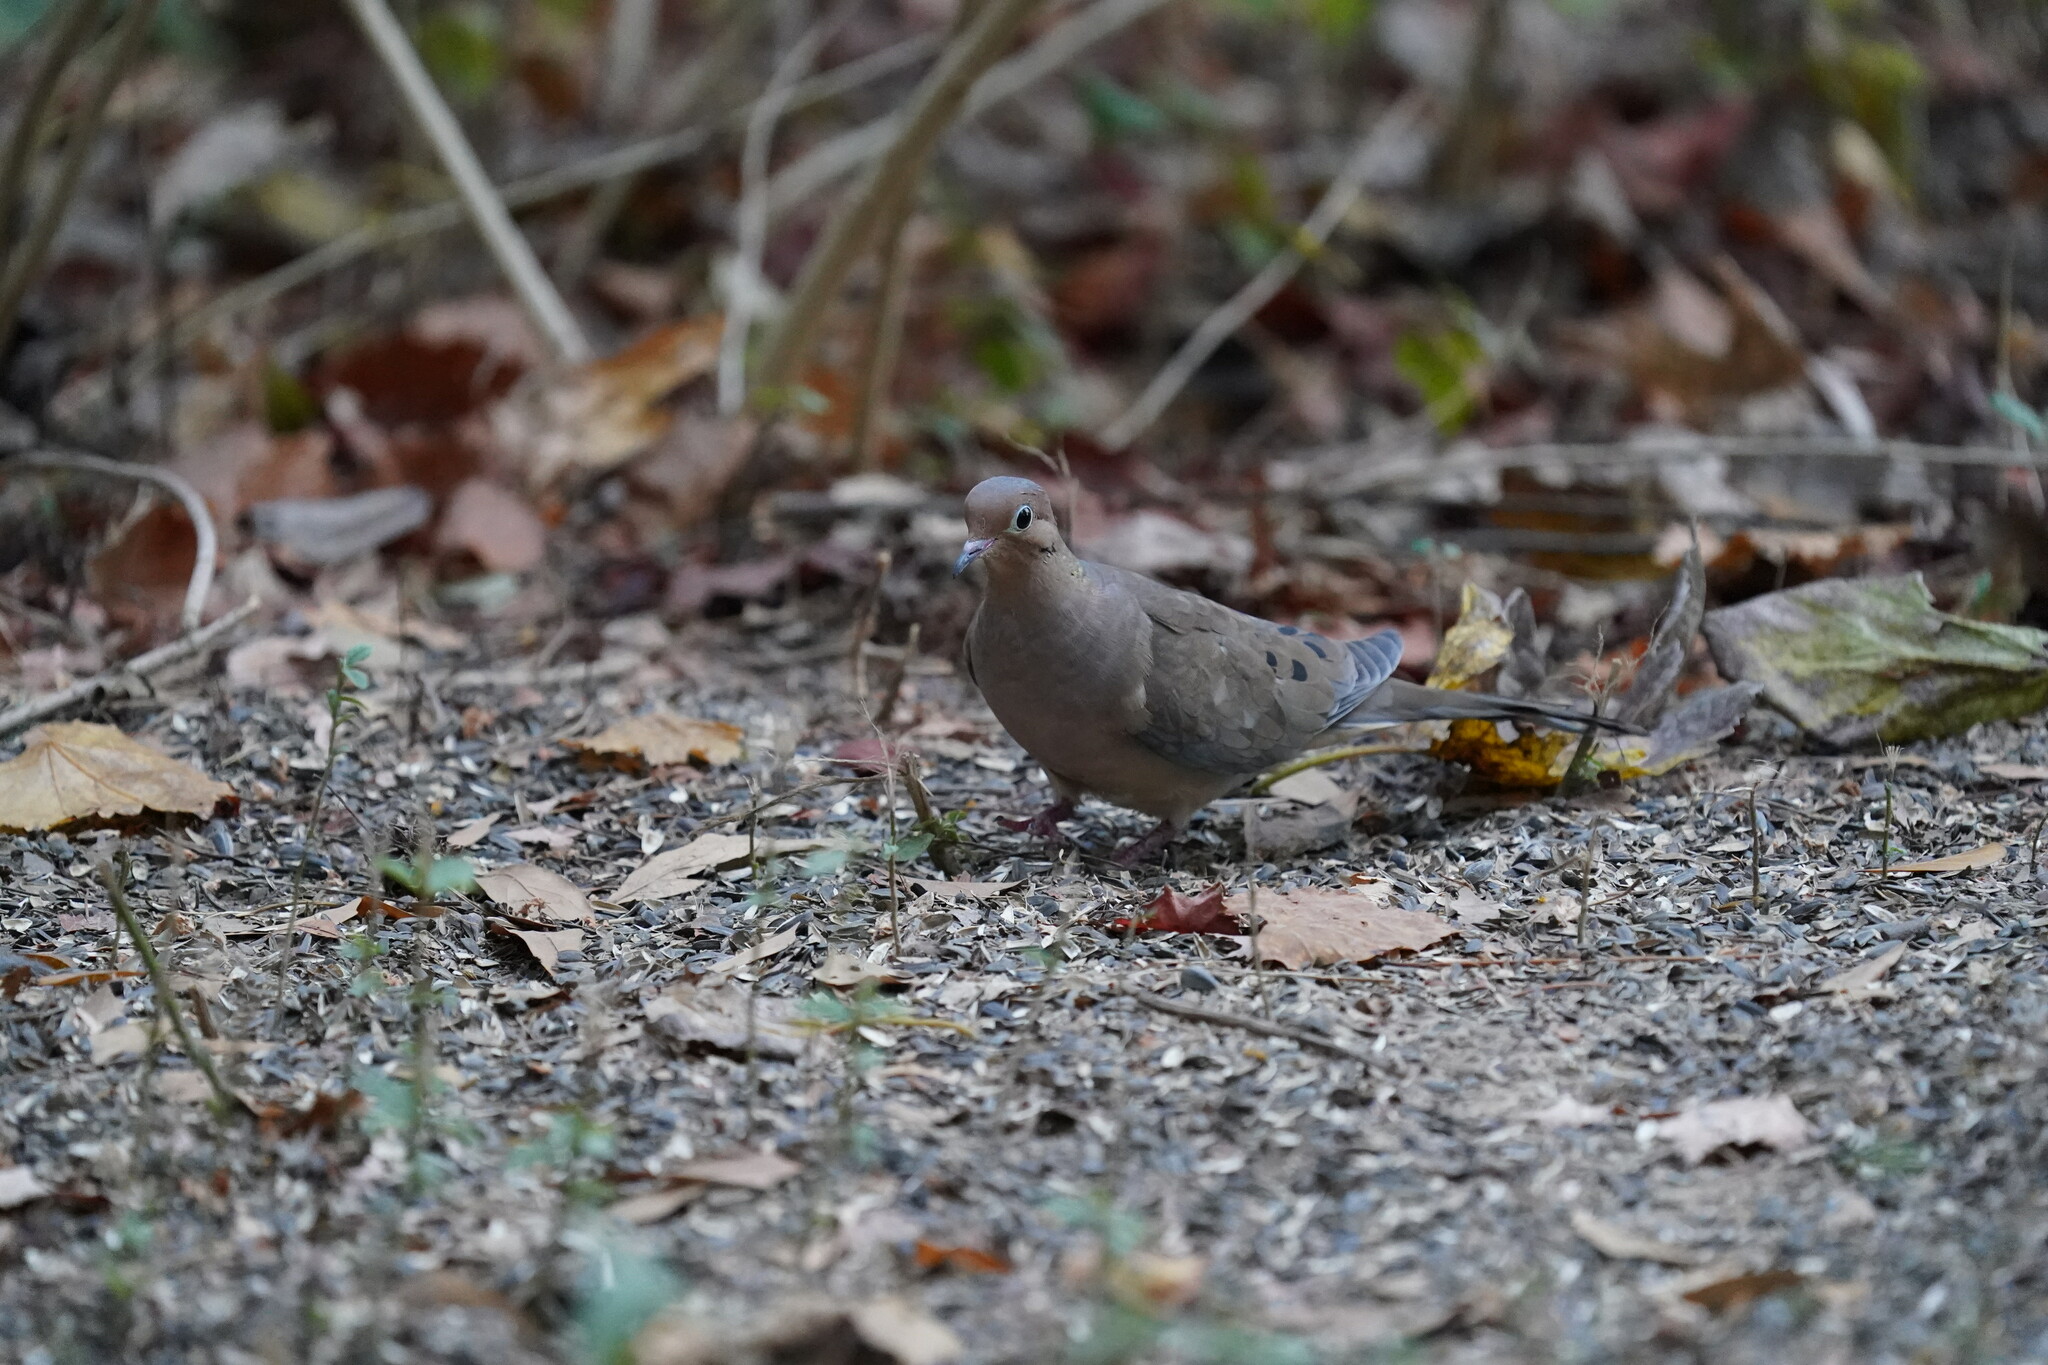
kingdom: Animalia
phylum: Chordata
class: Aves
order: Columbiformes
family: Columbidae
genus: Zenaida
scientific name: Zenaida macroura
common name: Mourning dove
